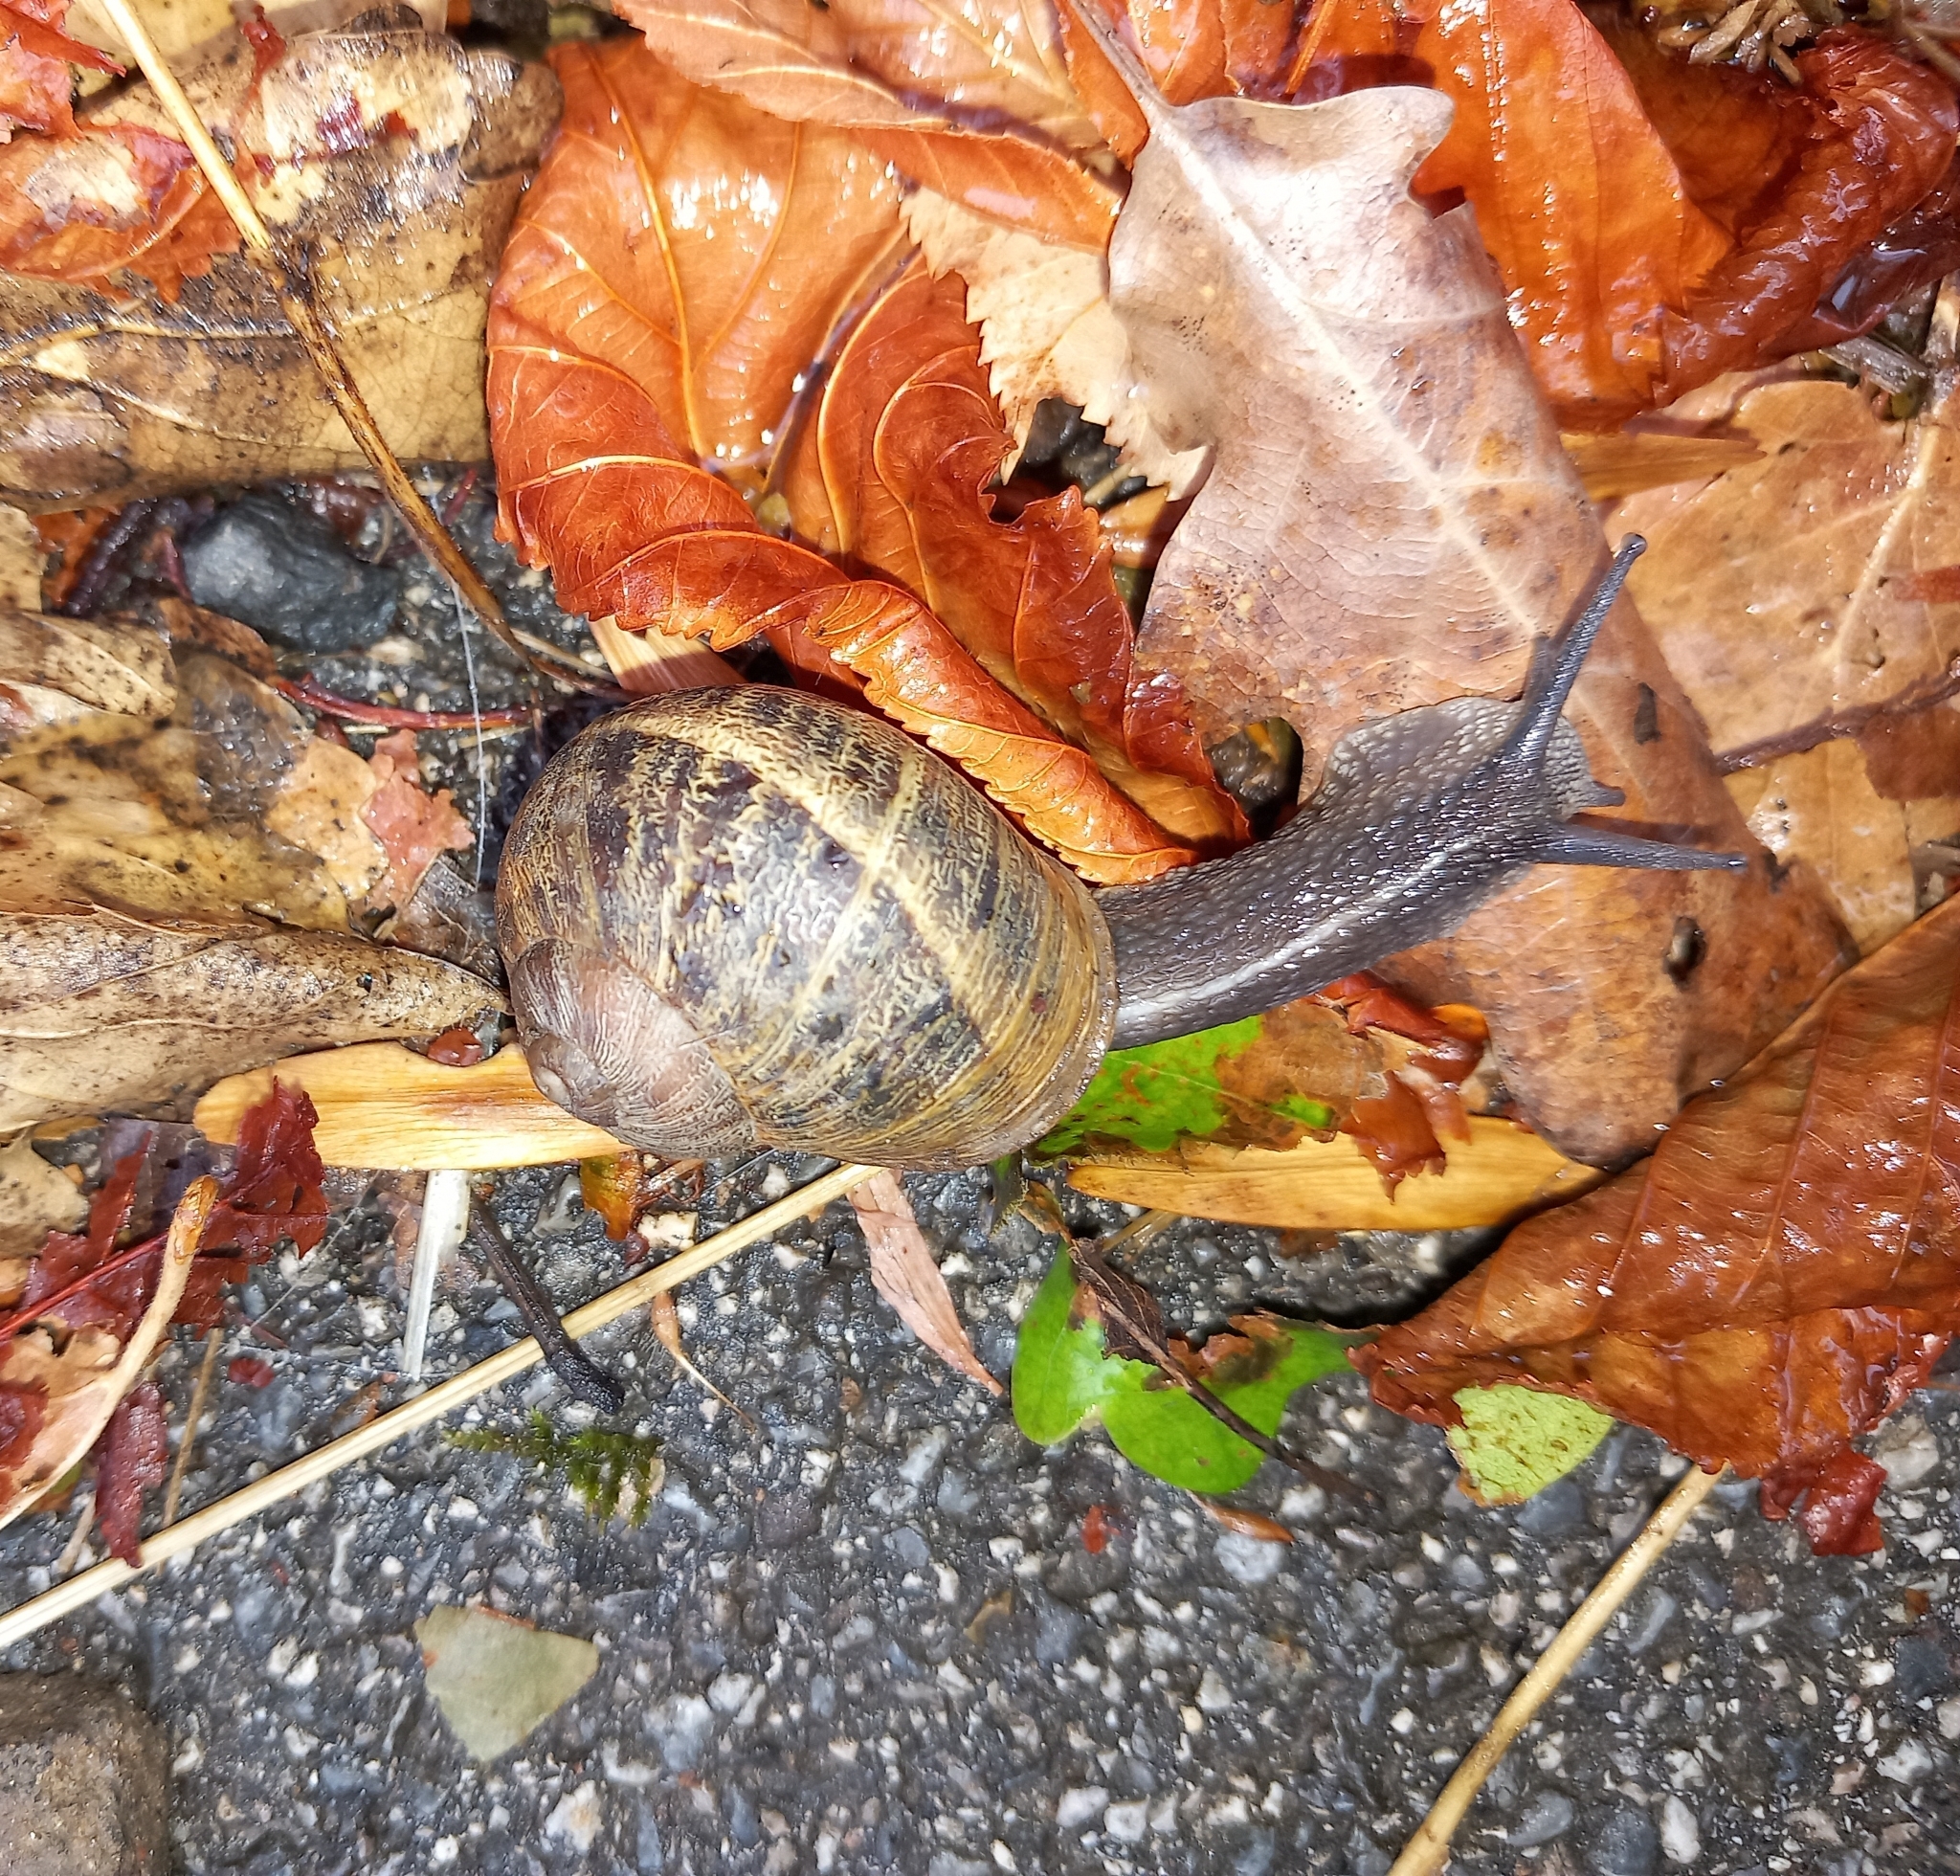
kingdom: Animalia
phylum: Mollusca
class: Gastropoda
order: Stylommatophora
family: Helicidae
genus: Cornu
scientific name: Cornu aspersum
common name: Brown garden snail
